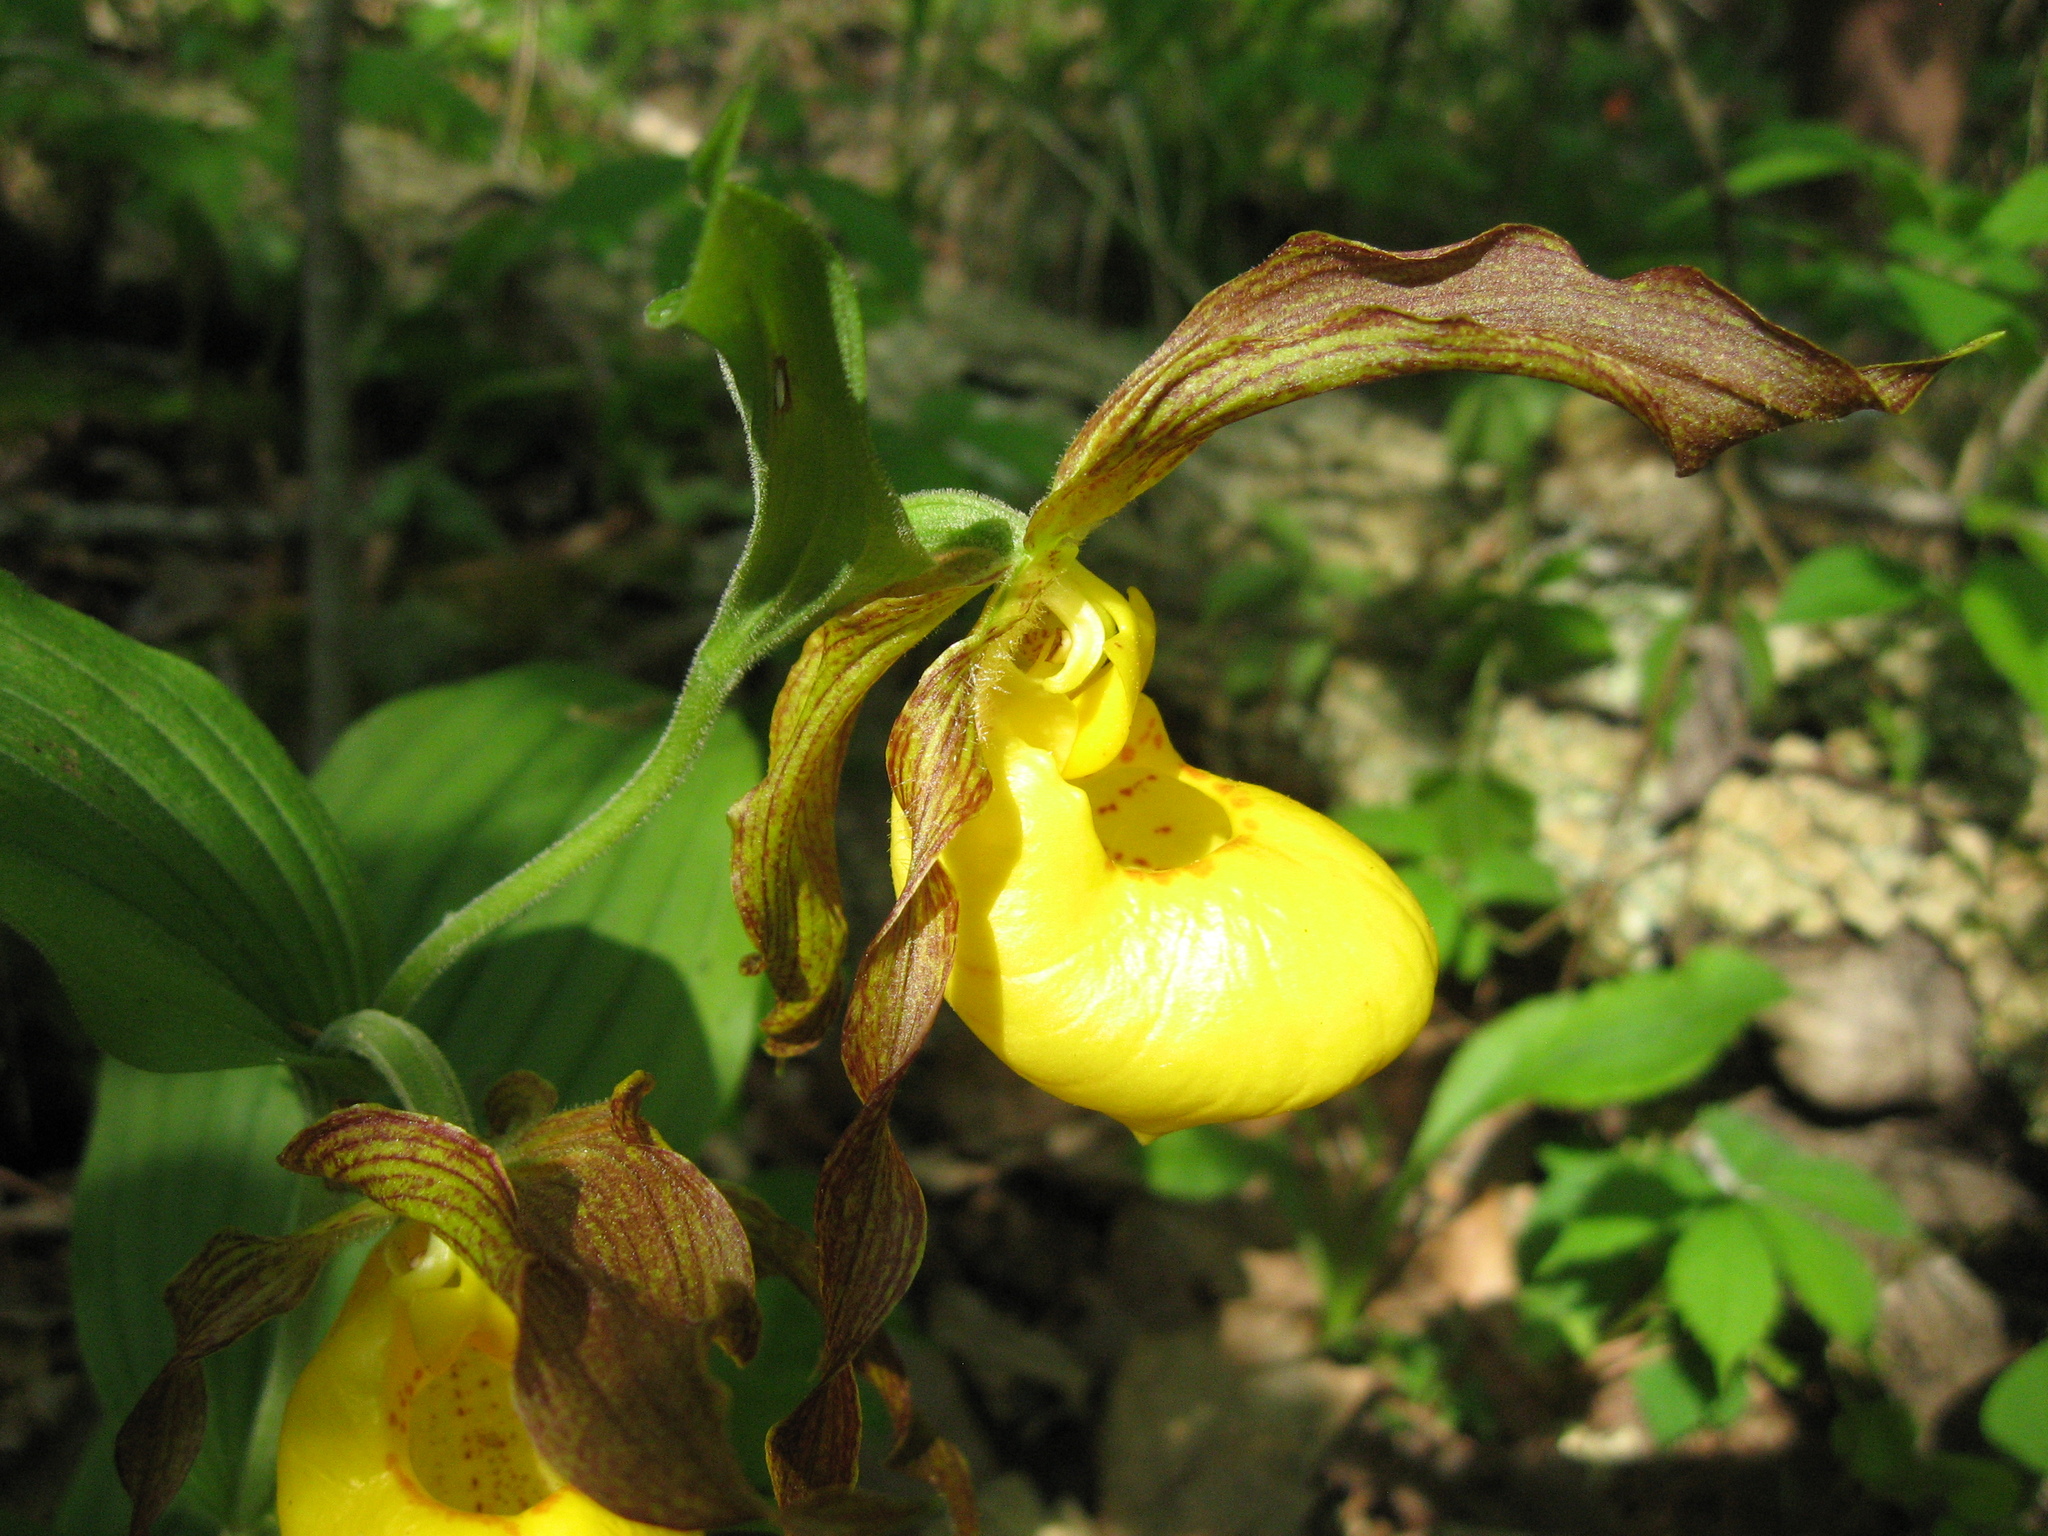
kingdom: Plantae
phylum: Tracheophyta
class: Liliopsida
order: Asparagales
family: Orchidaceae
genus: Cypripedium
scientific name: Cypripedium parviflorum
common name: American yellow lady's-slipper
